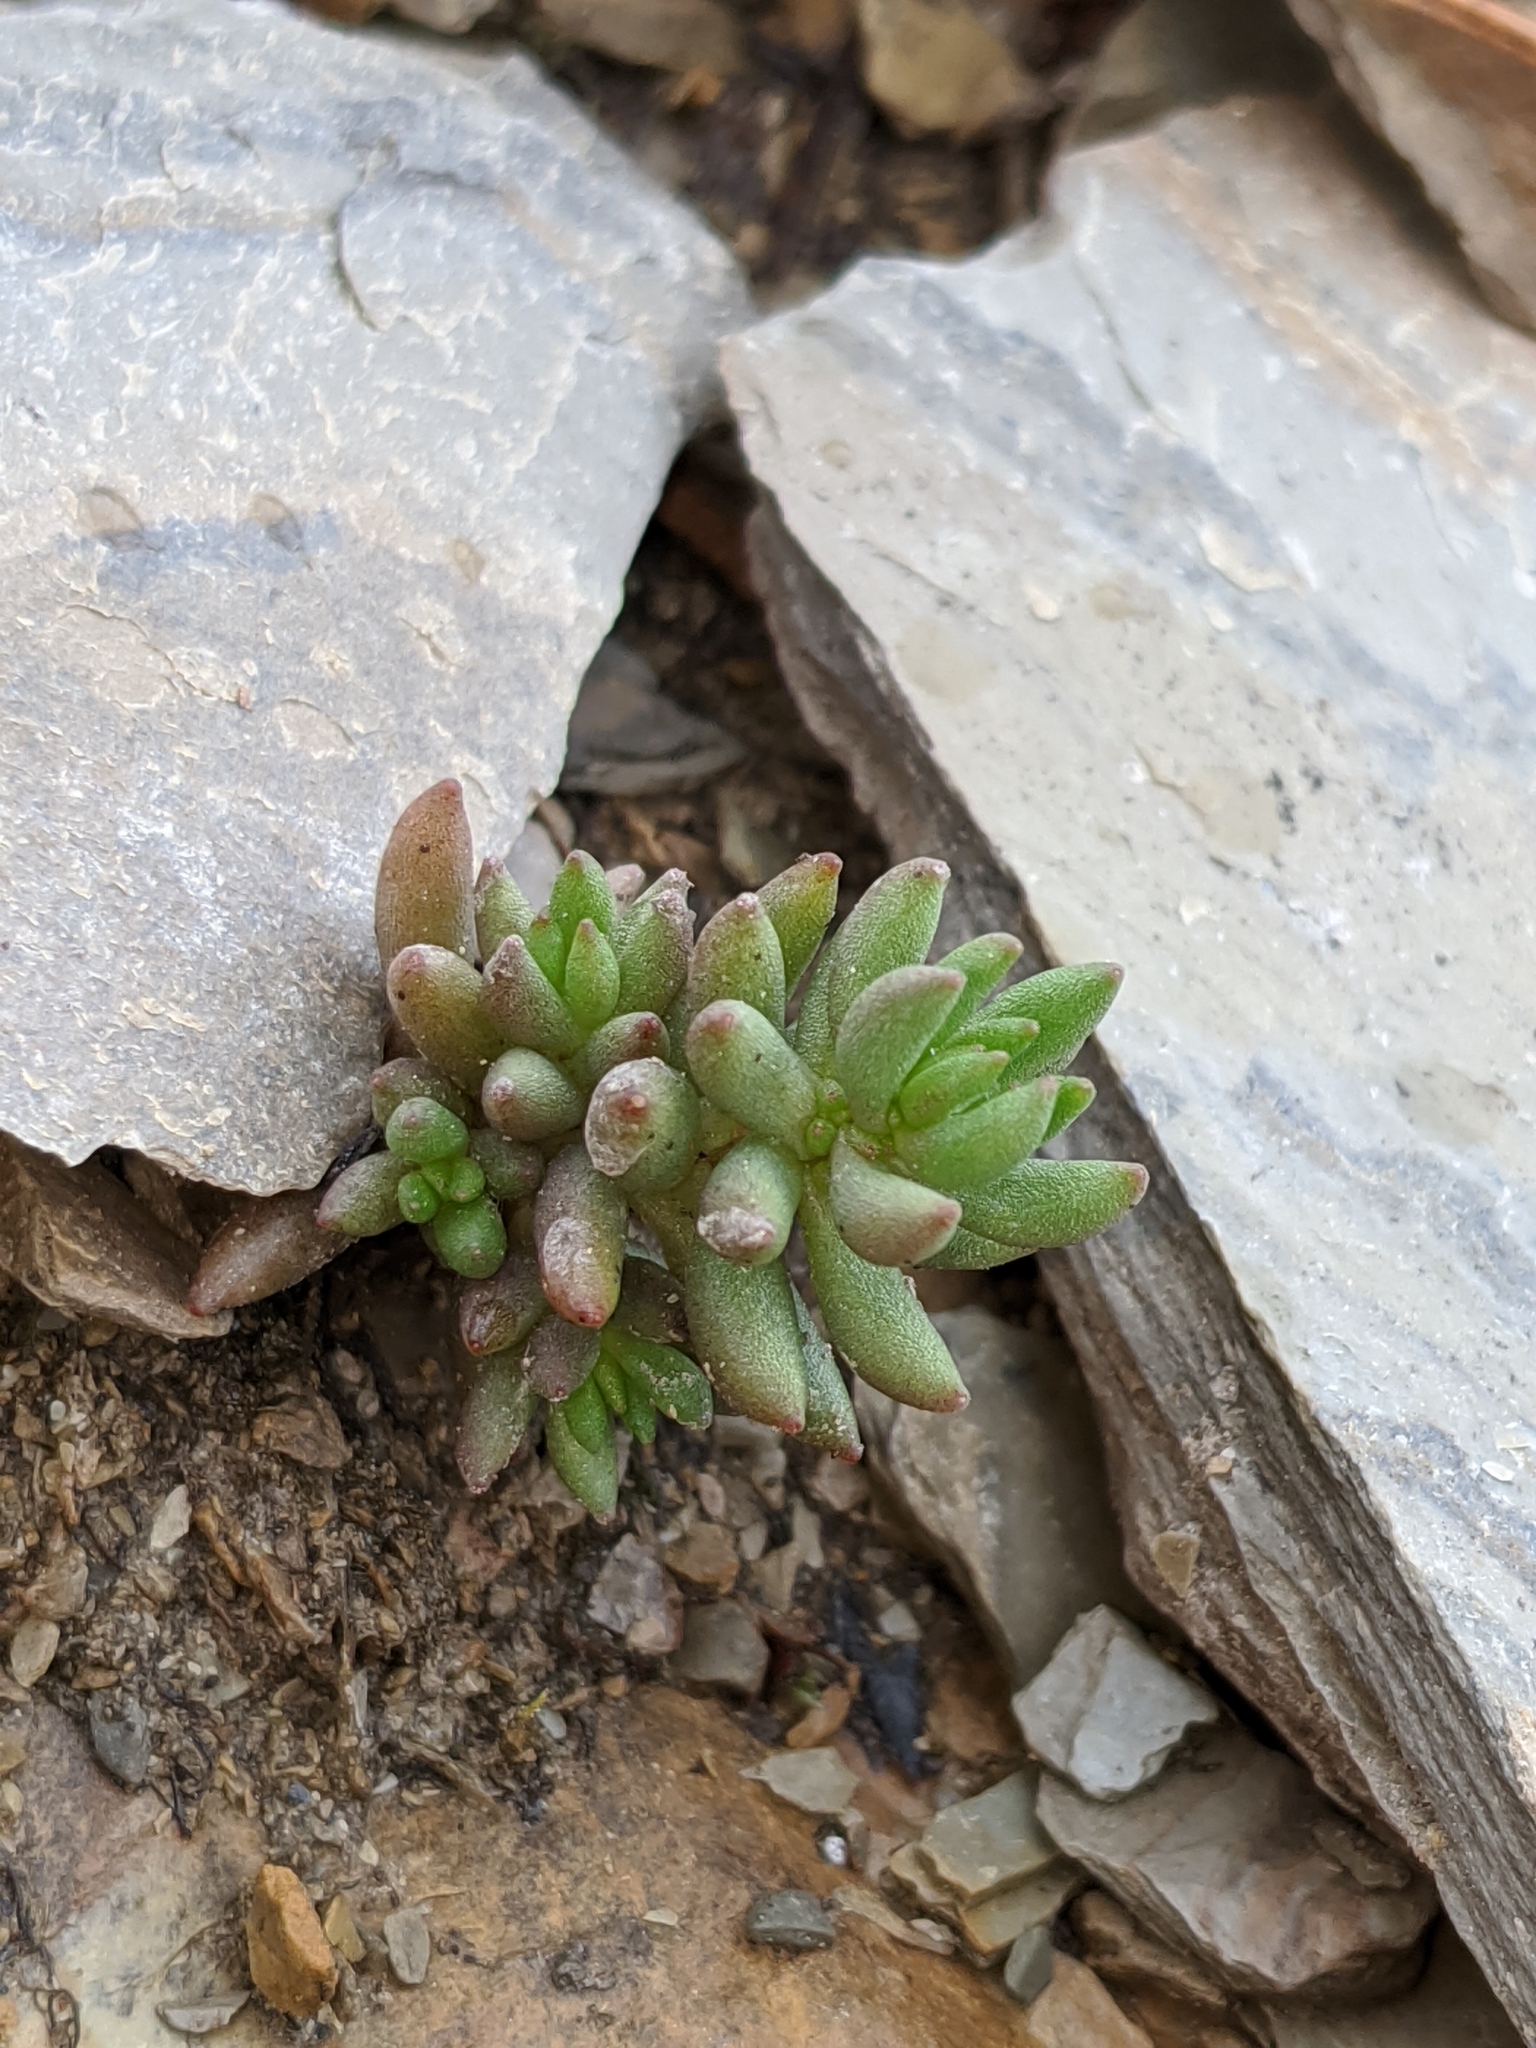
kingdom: Plantae
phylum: Tracheophyta
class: Magnoliopsida
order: Saxifragales
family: Crassulaceae
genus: Sedum
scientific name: Sedum lanceolatum
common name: Common stonecrop
